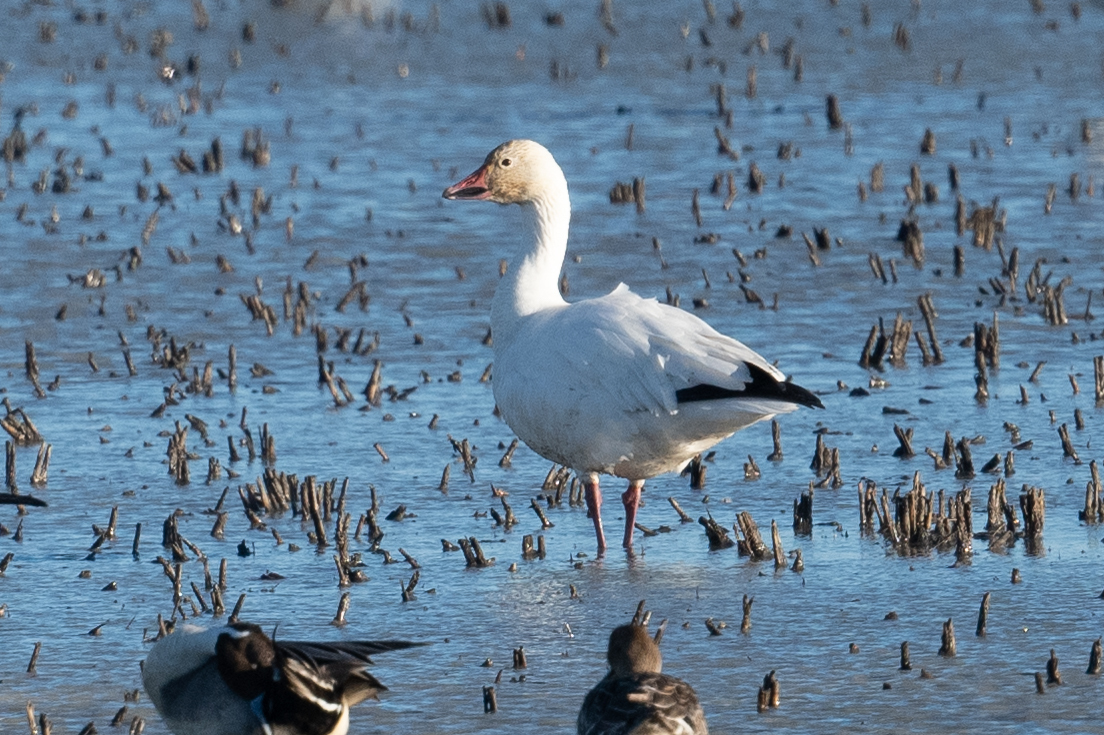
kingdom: Animalia
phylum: Chordata
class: Aves
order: Anseriformes
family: Anatidae
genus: Anser
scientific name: Anser caerulescens
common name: Snow goose
